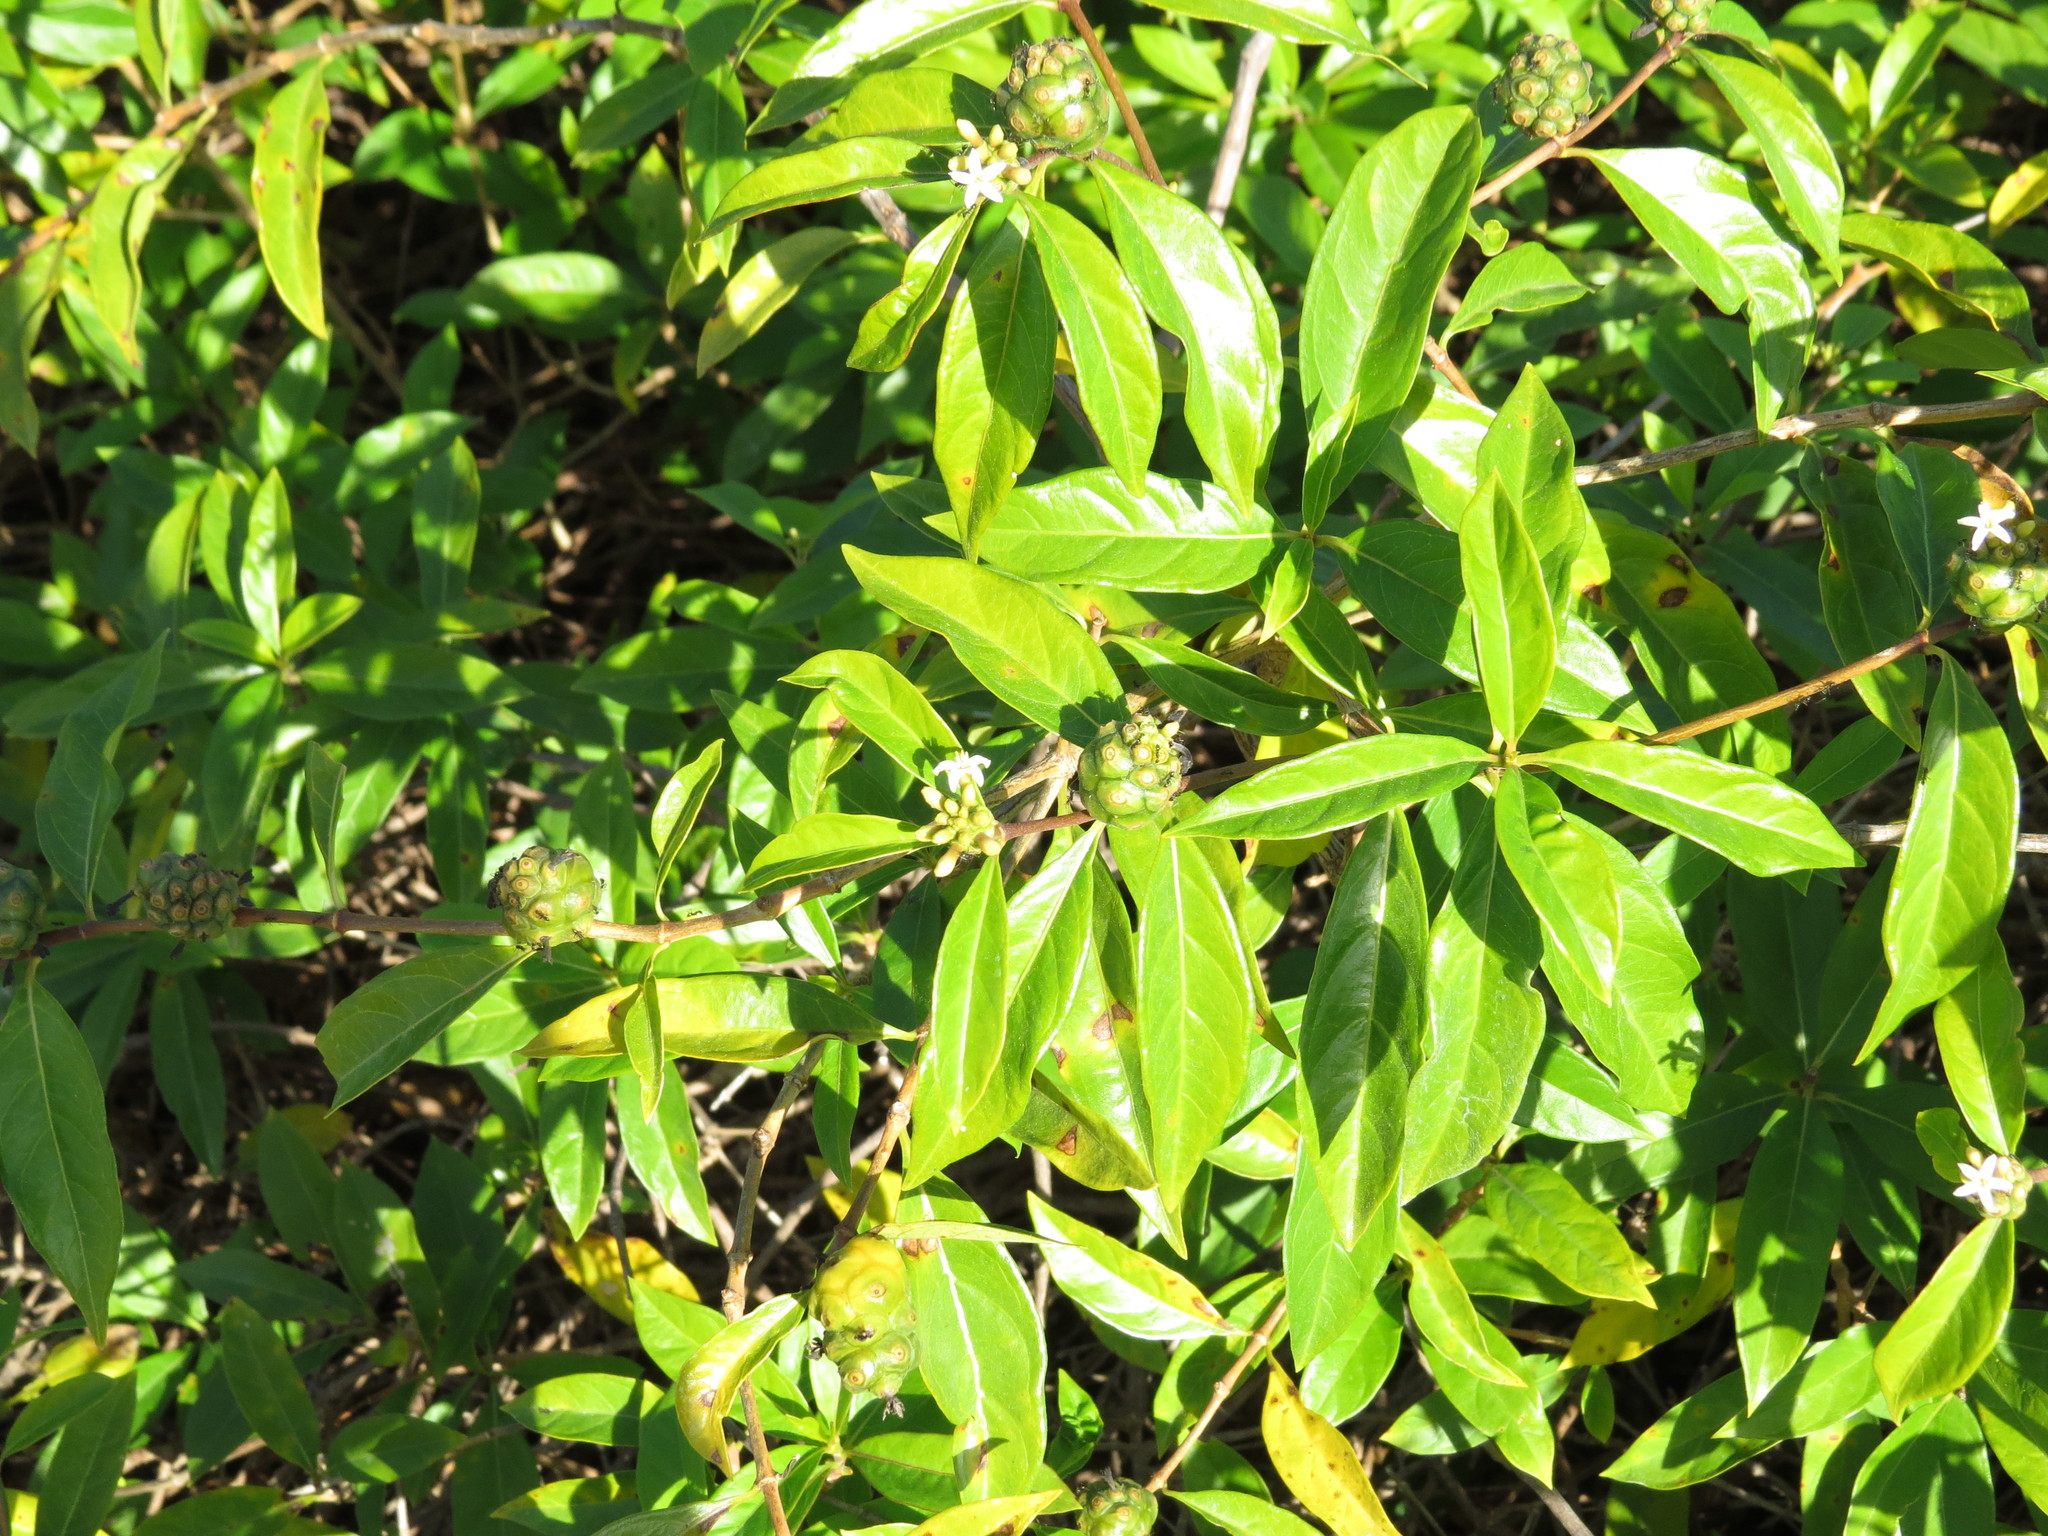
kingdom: Plantae
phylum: Tracheophyta
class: Magnoliopsida
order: Gentianales
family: Rubiaceae
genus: Morinda
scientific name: Morinda royoc
